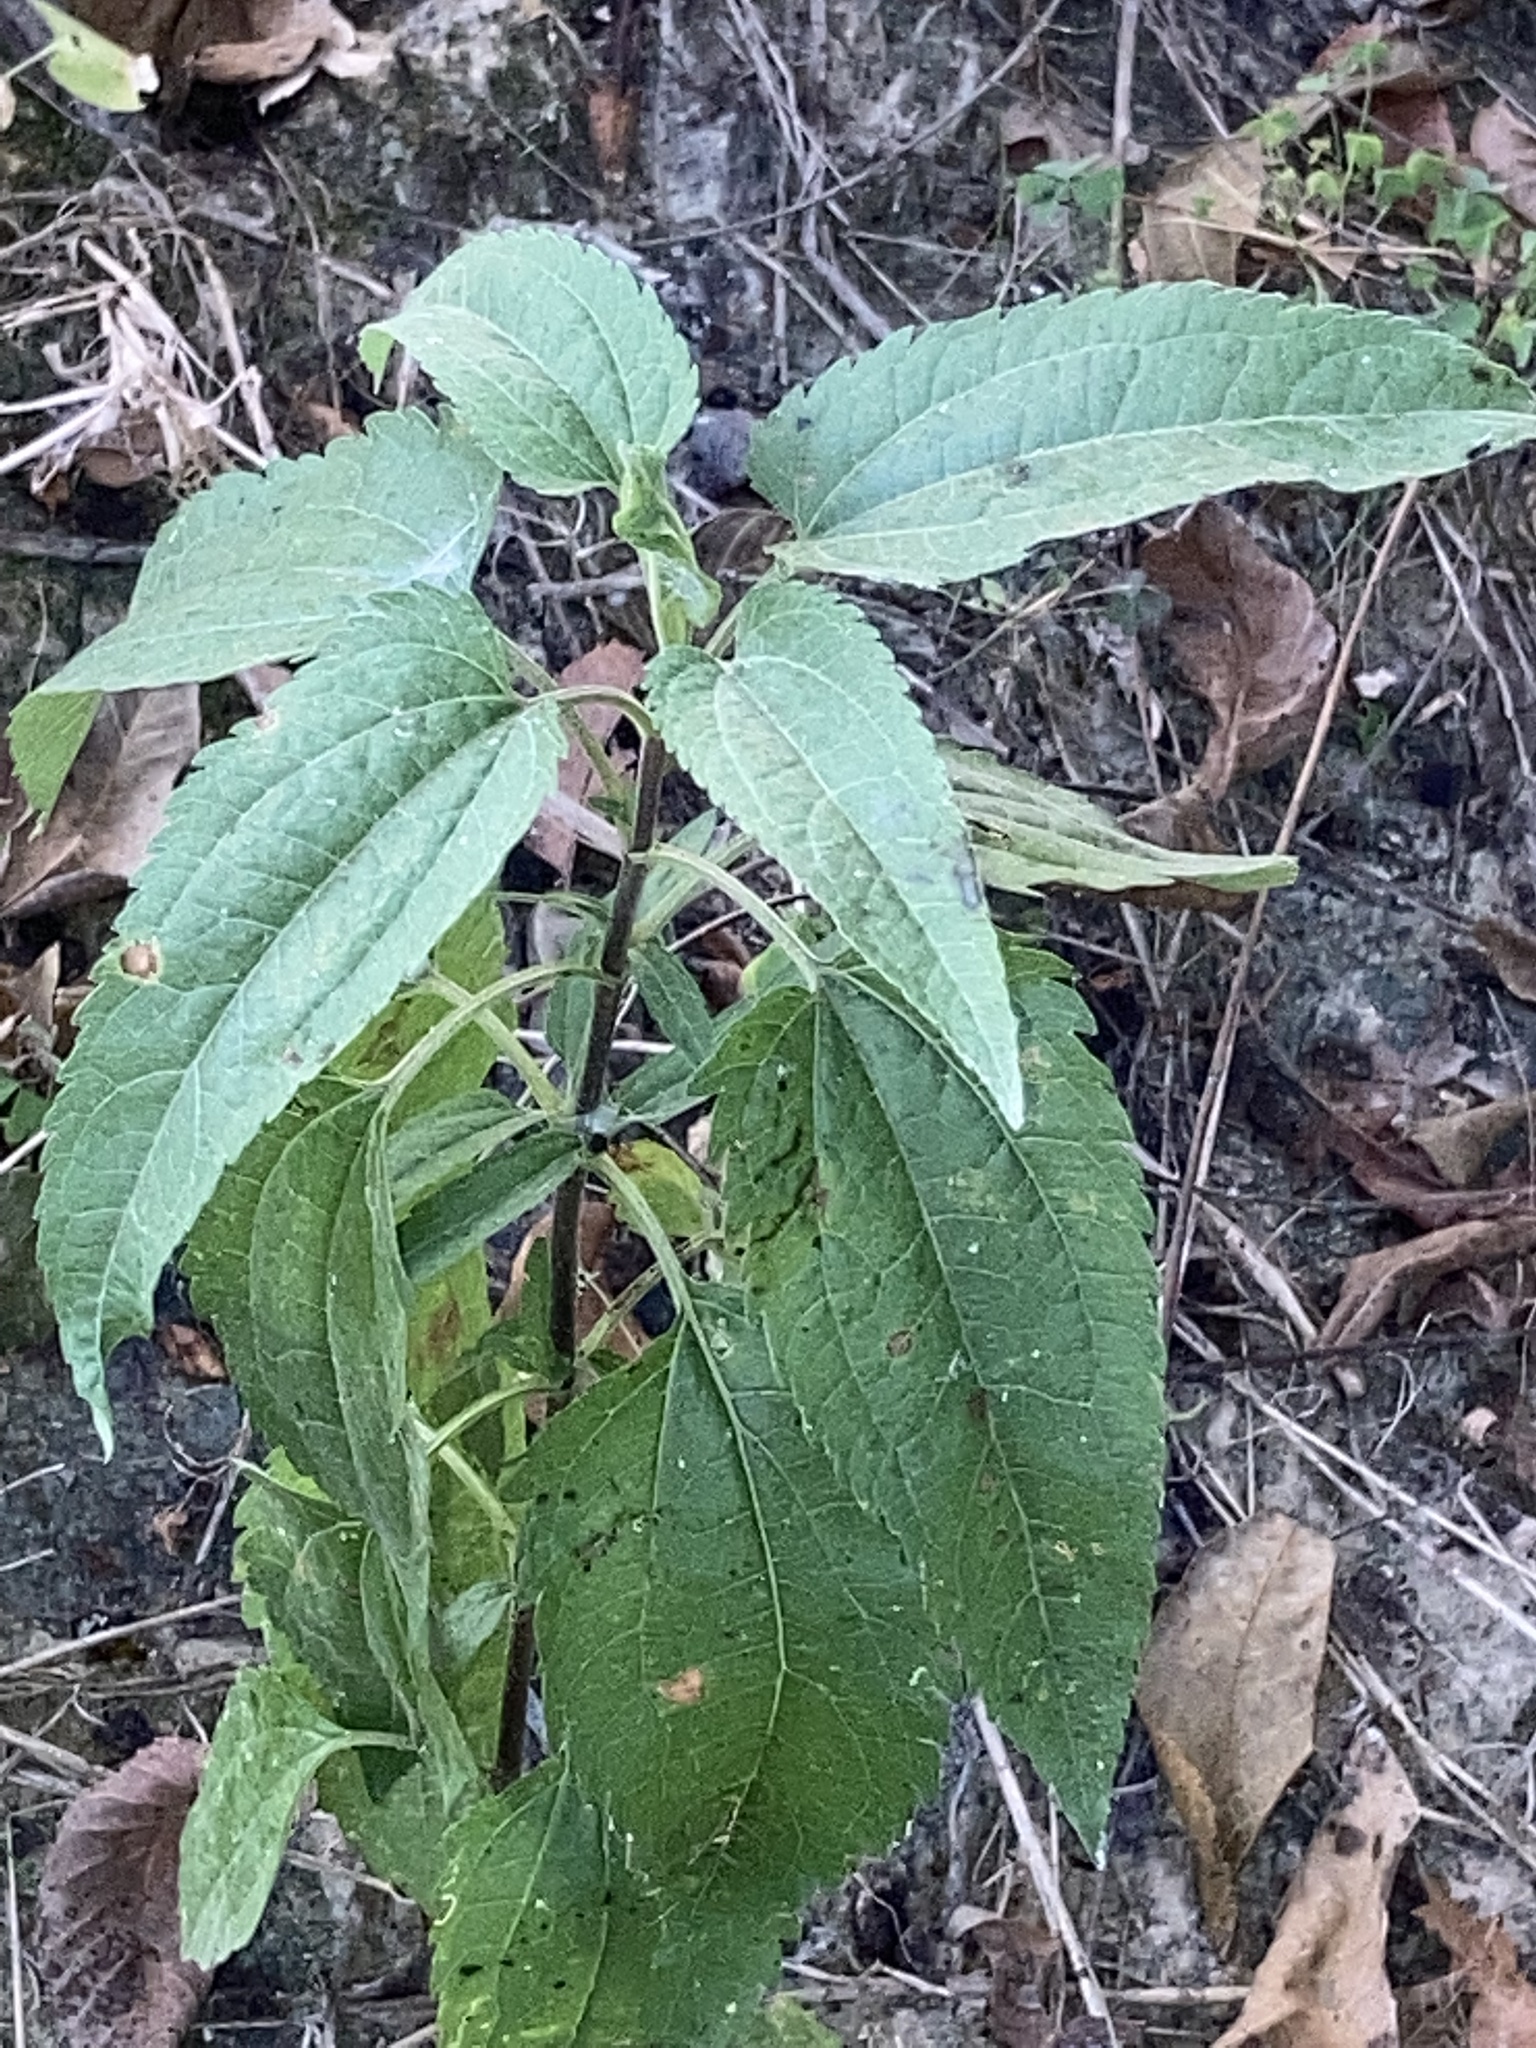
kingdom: Plantae
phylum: Tracheophyta
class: Magnoliopsida
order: Asterales
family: Asteraceae
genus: Eupatorium
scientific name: Eupatorium serotinum
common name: Late boneset
